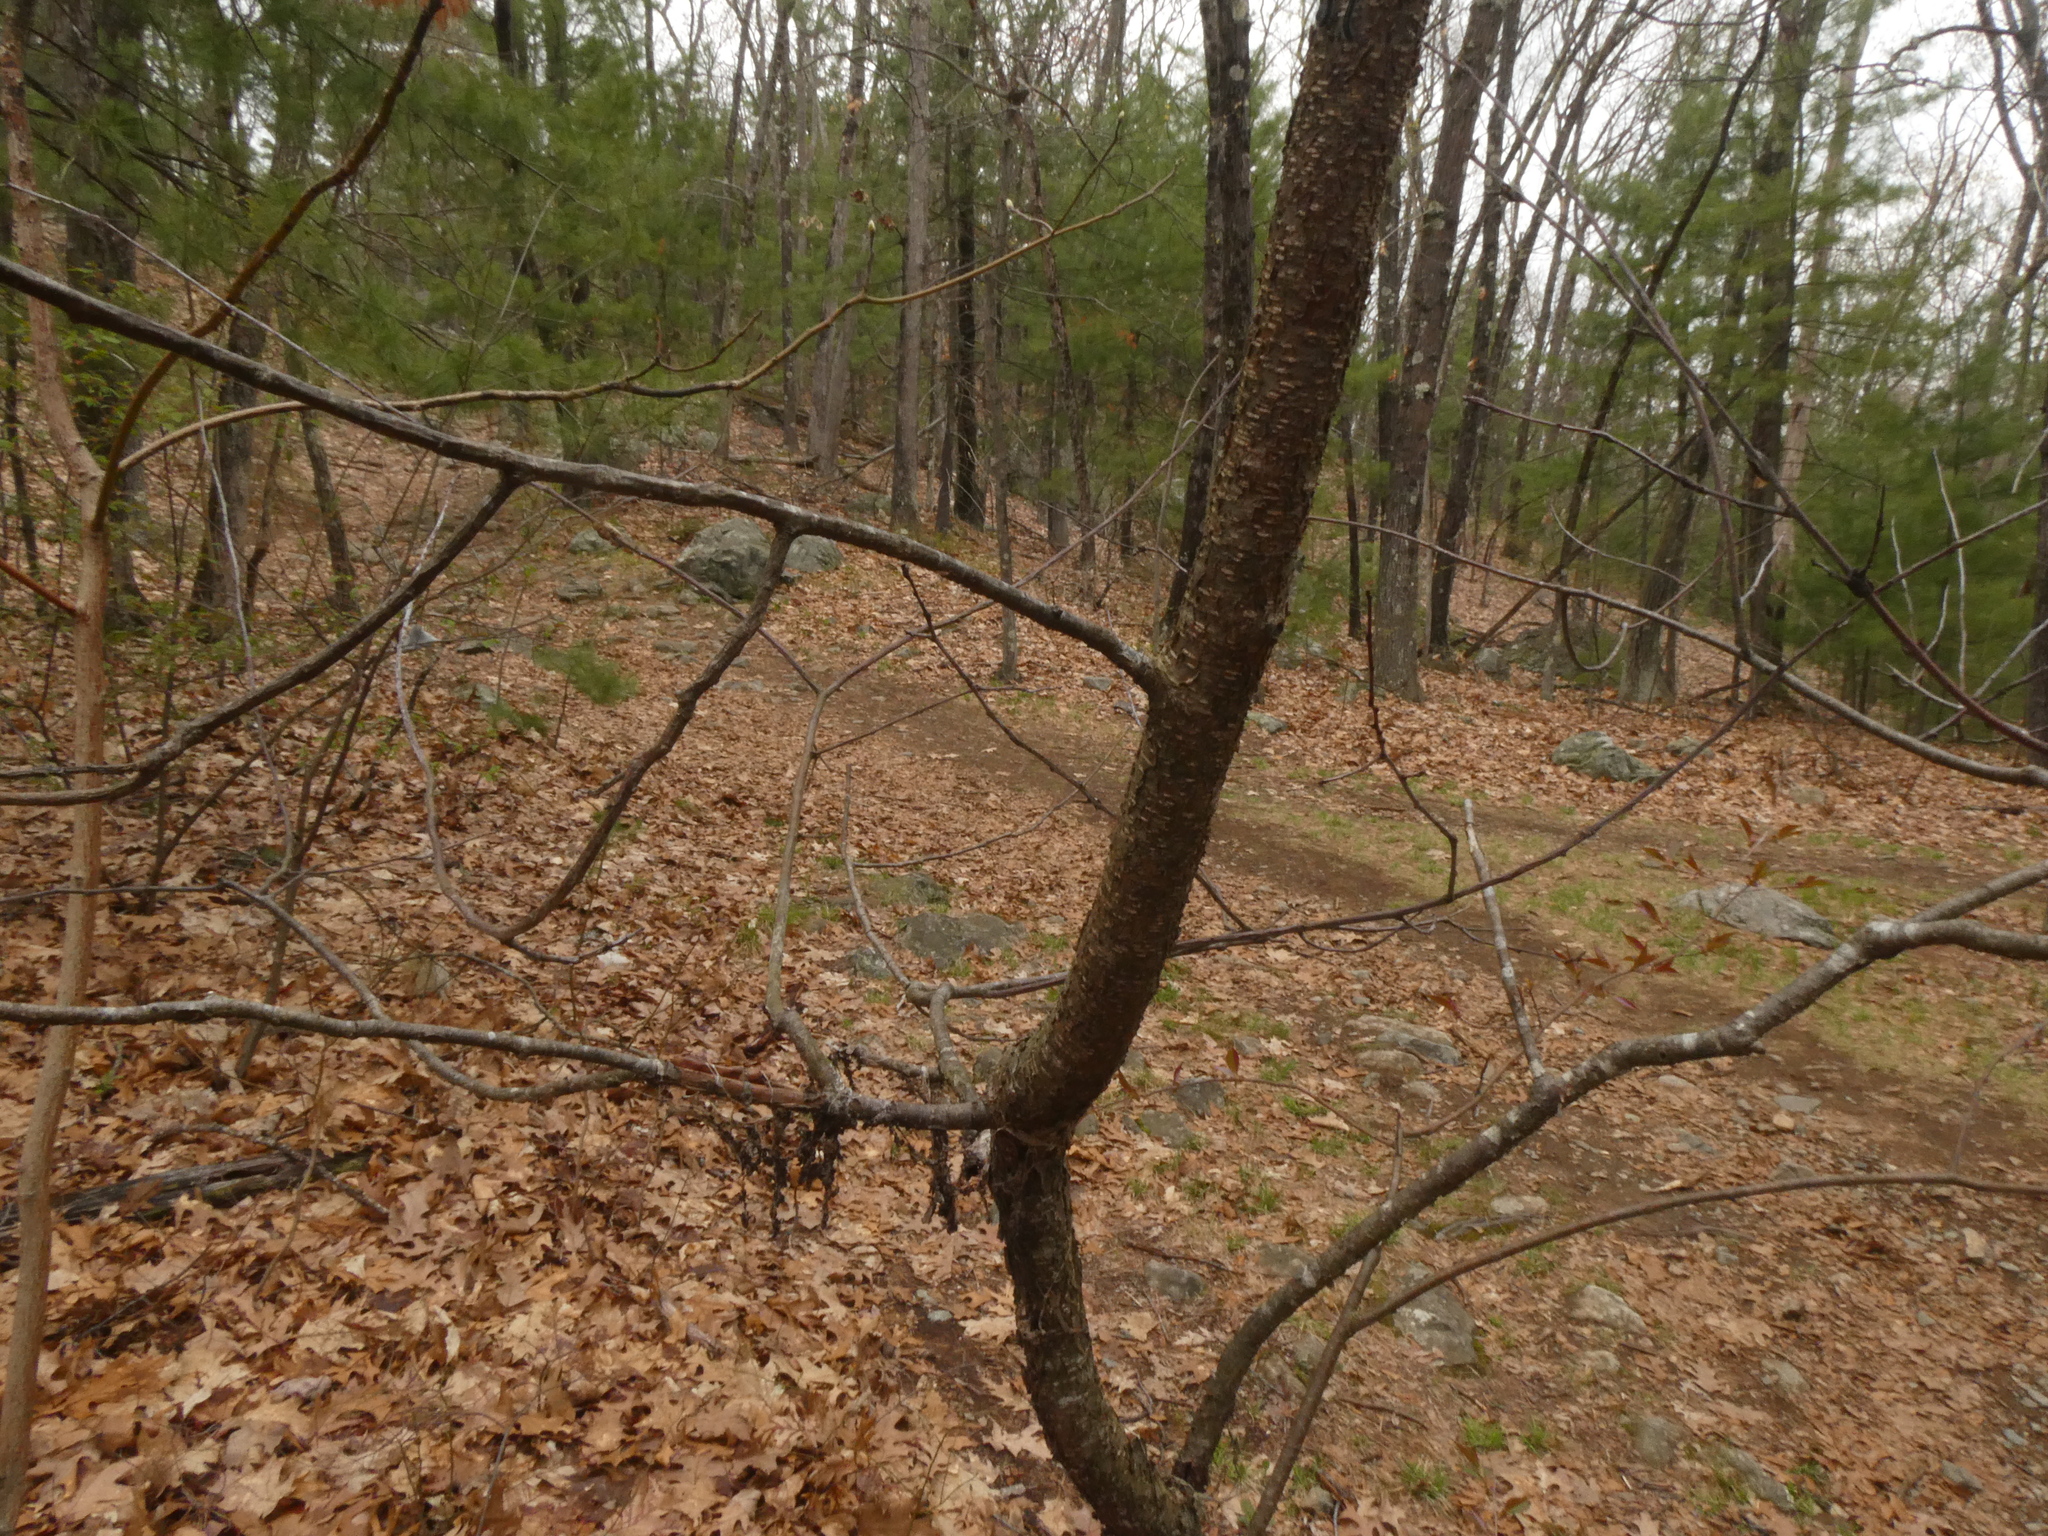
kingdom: Animalia
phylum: Arthropoda
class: Insecta
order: Lepidoptera
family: Lasiocampidae
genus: Malacosoma
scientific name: Malacosoma americana
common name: Eastern tent caterpillar moth
